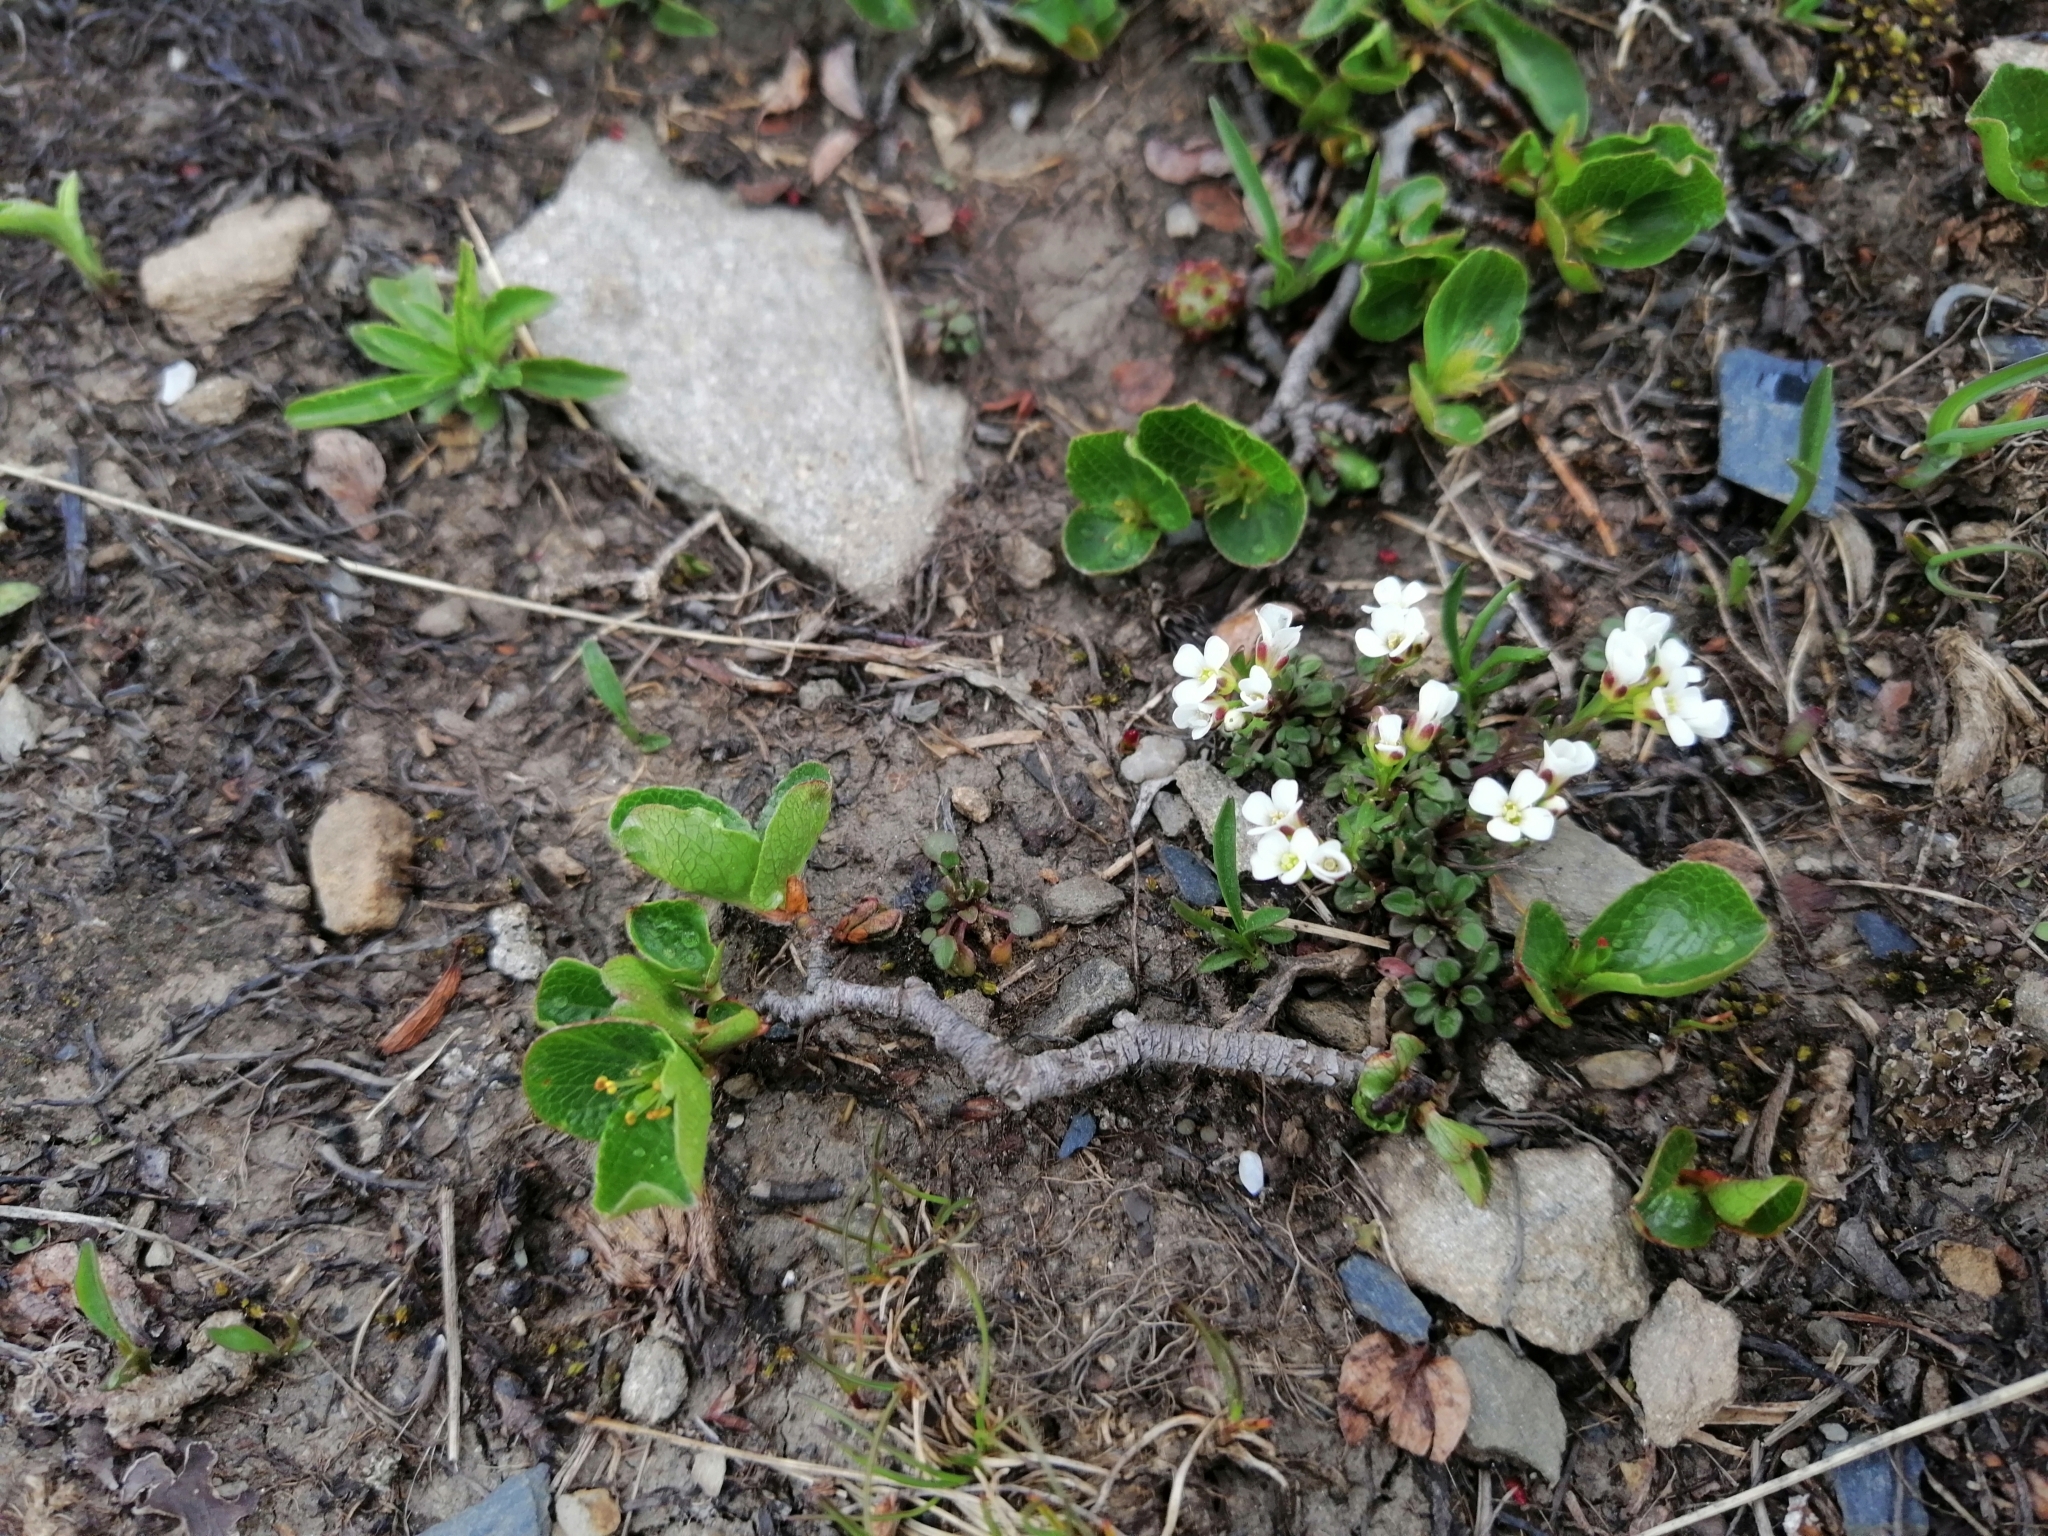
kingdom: Plantae
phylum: Tracheophyta
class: Magnoliopsida
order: Malpighiales
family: Salicaceae
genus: Salix
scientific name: Salix herbacea
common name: Dwarf willow
